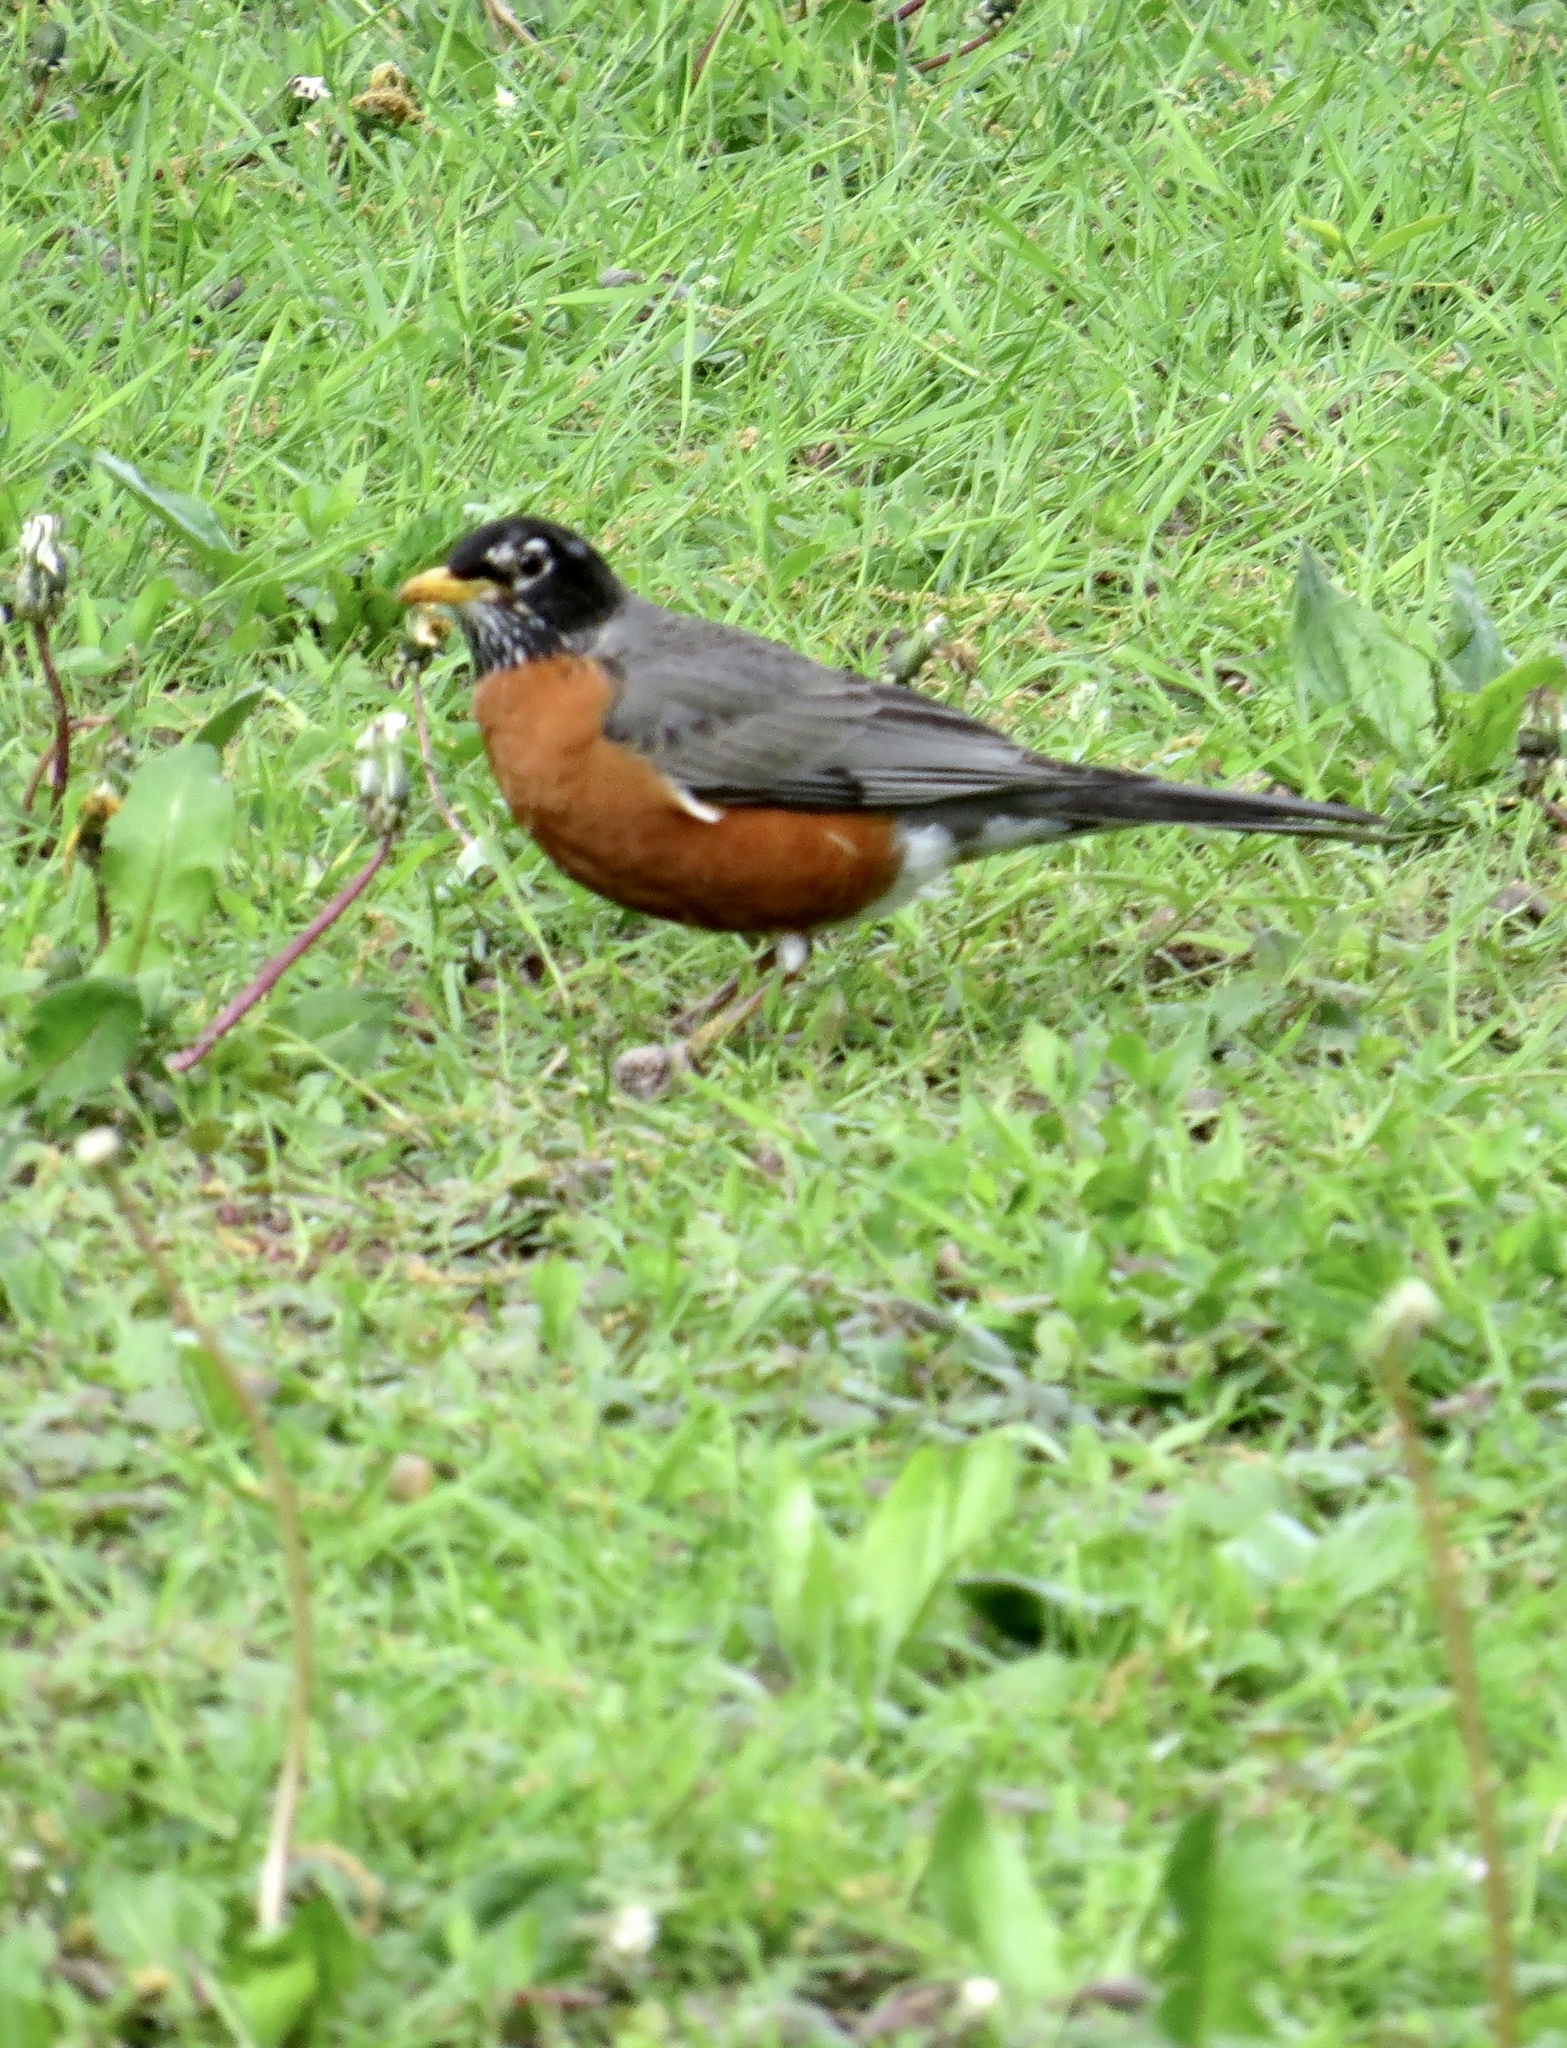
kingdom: Animalia
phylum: Chordata
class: Aves
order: Passeriformes
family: Turdidae
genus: Turdus
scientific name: Turdus migratorius
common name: American robin
